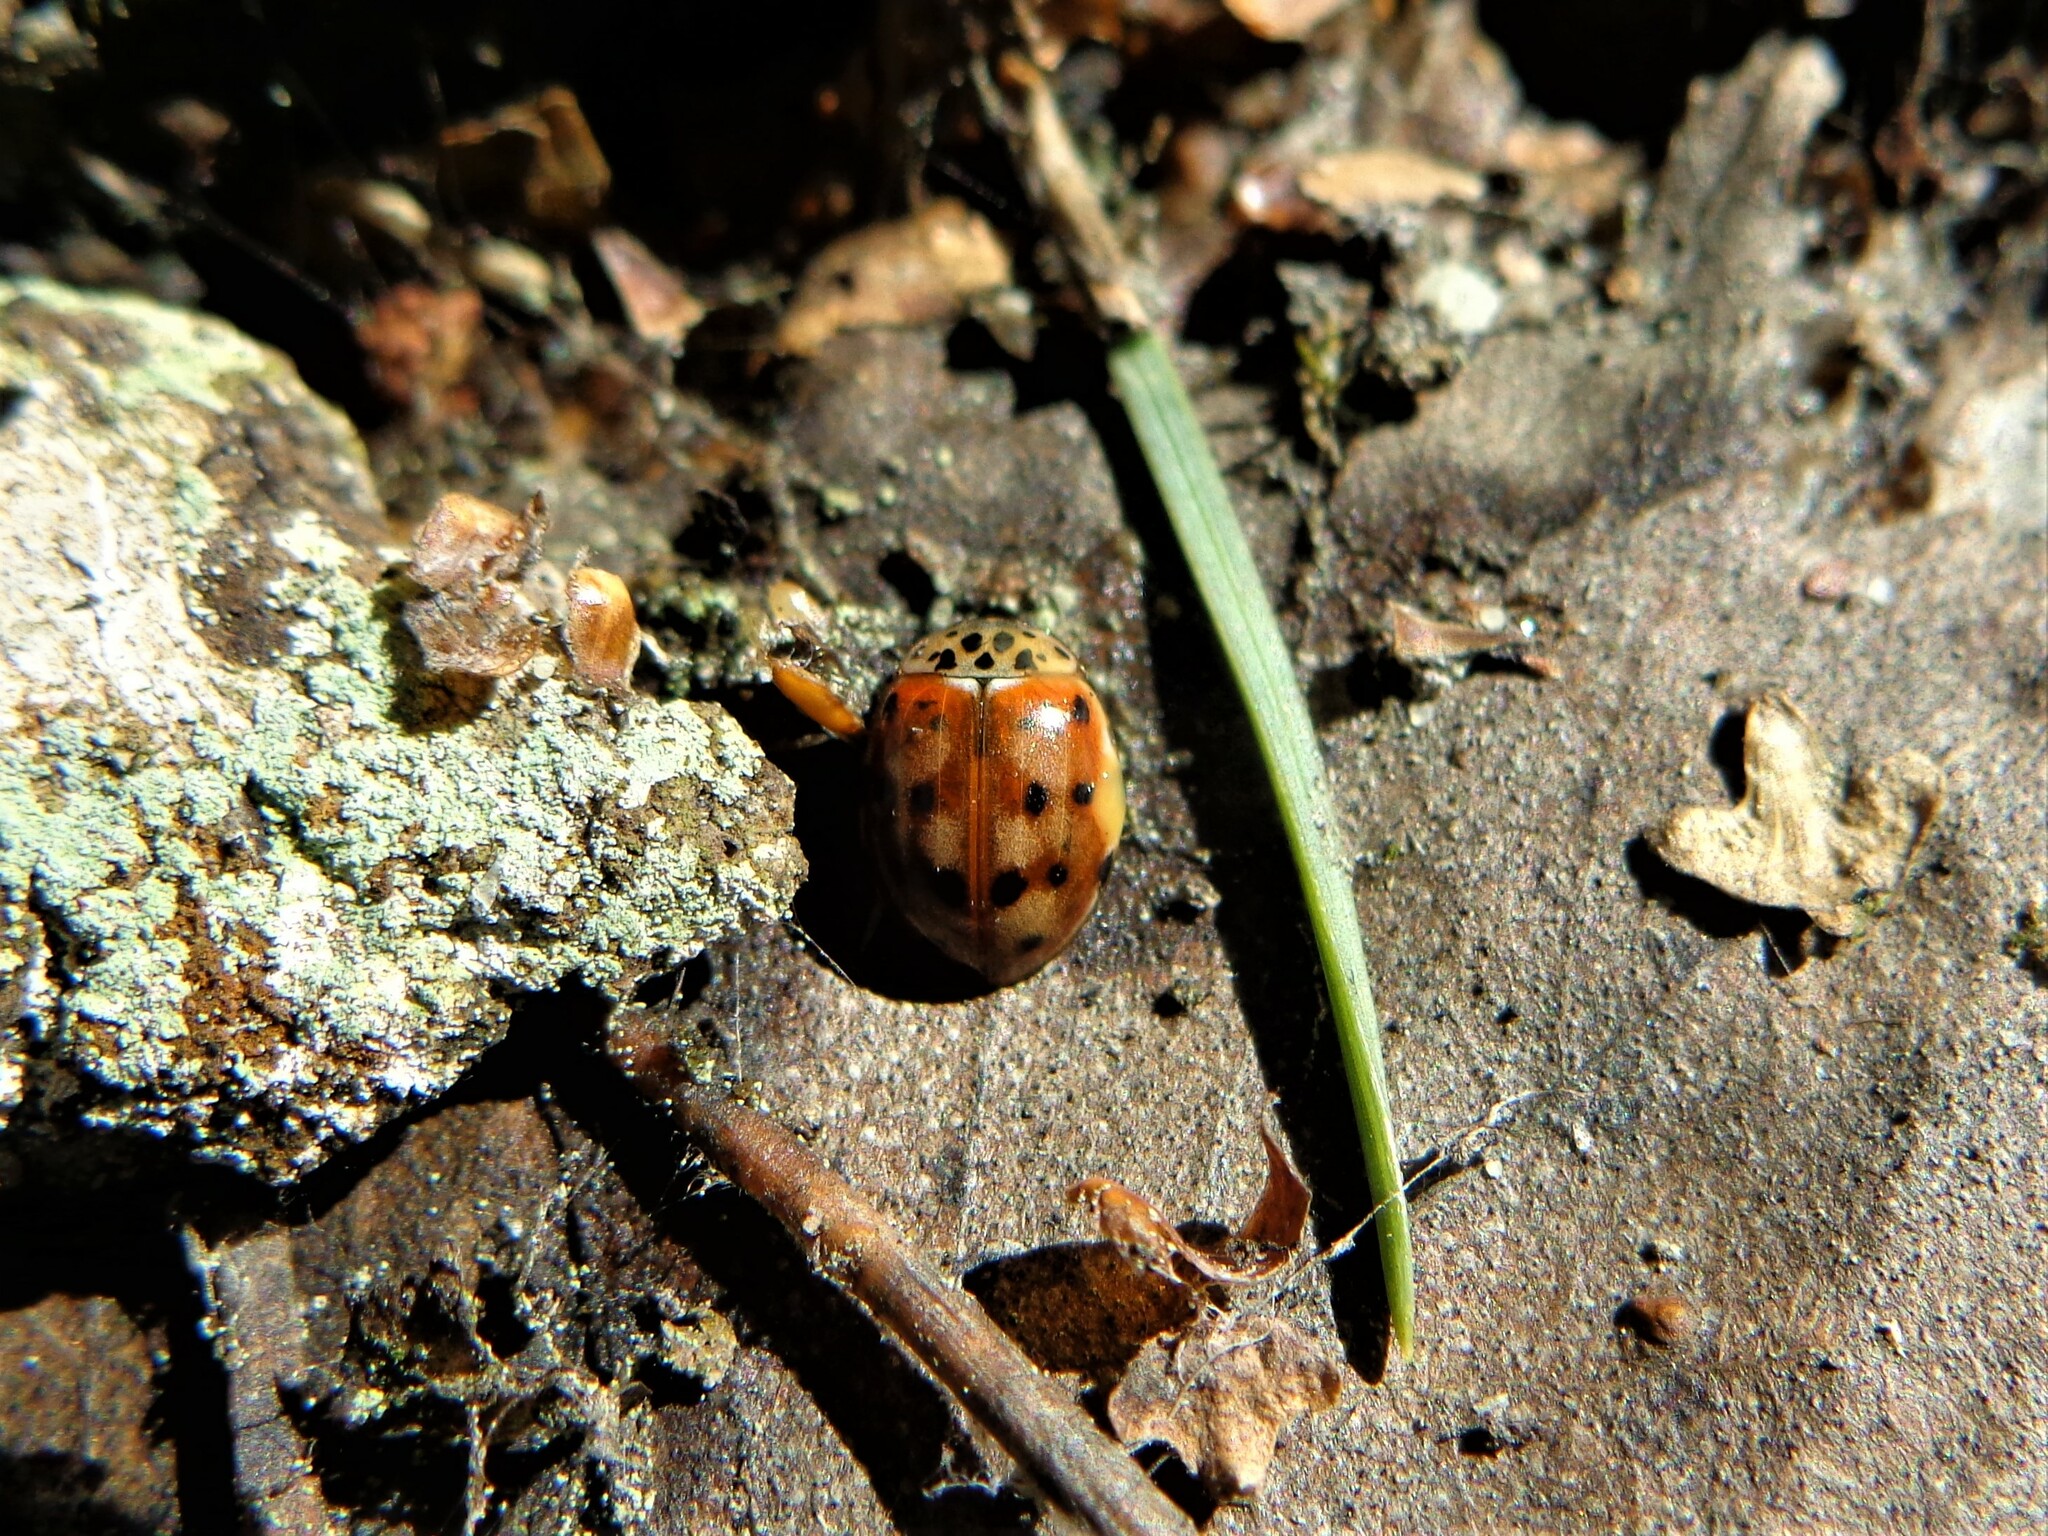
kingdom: Animalia
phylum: Arthropoda
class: Insecta
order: Coleoptera
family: Coccinellidae
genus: Harmonia
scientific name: Harmonia quadripunctata
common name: Cream-streaked ladybird
